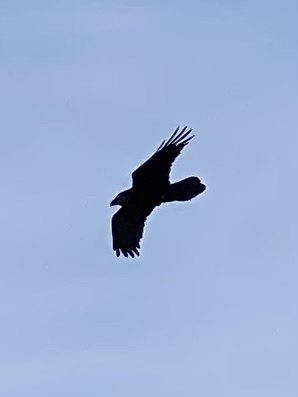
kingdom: Animalia
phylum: Chordata
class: Aves
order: Passeriformes
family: Corvidae
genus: Corvus
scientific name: Corvus corax
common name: Common raven
